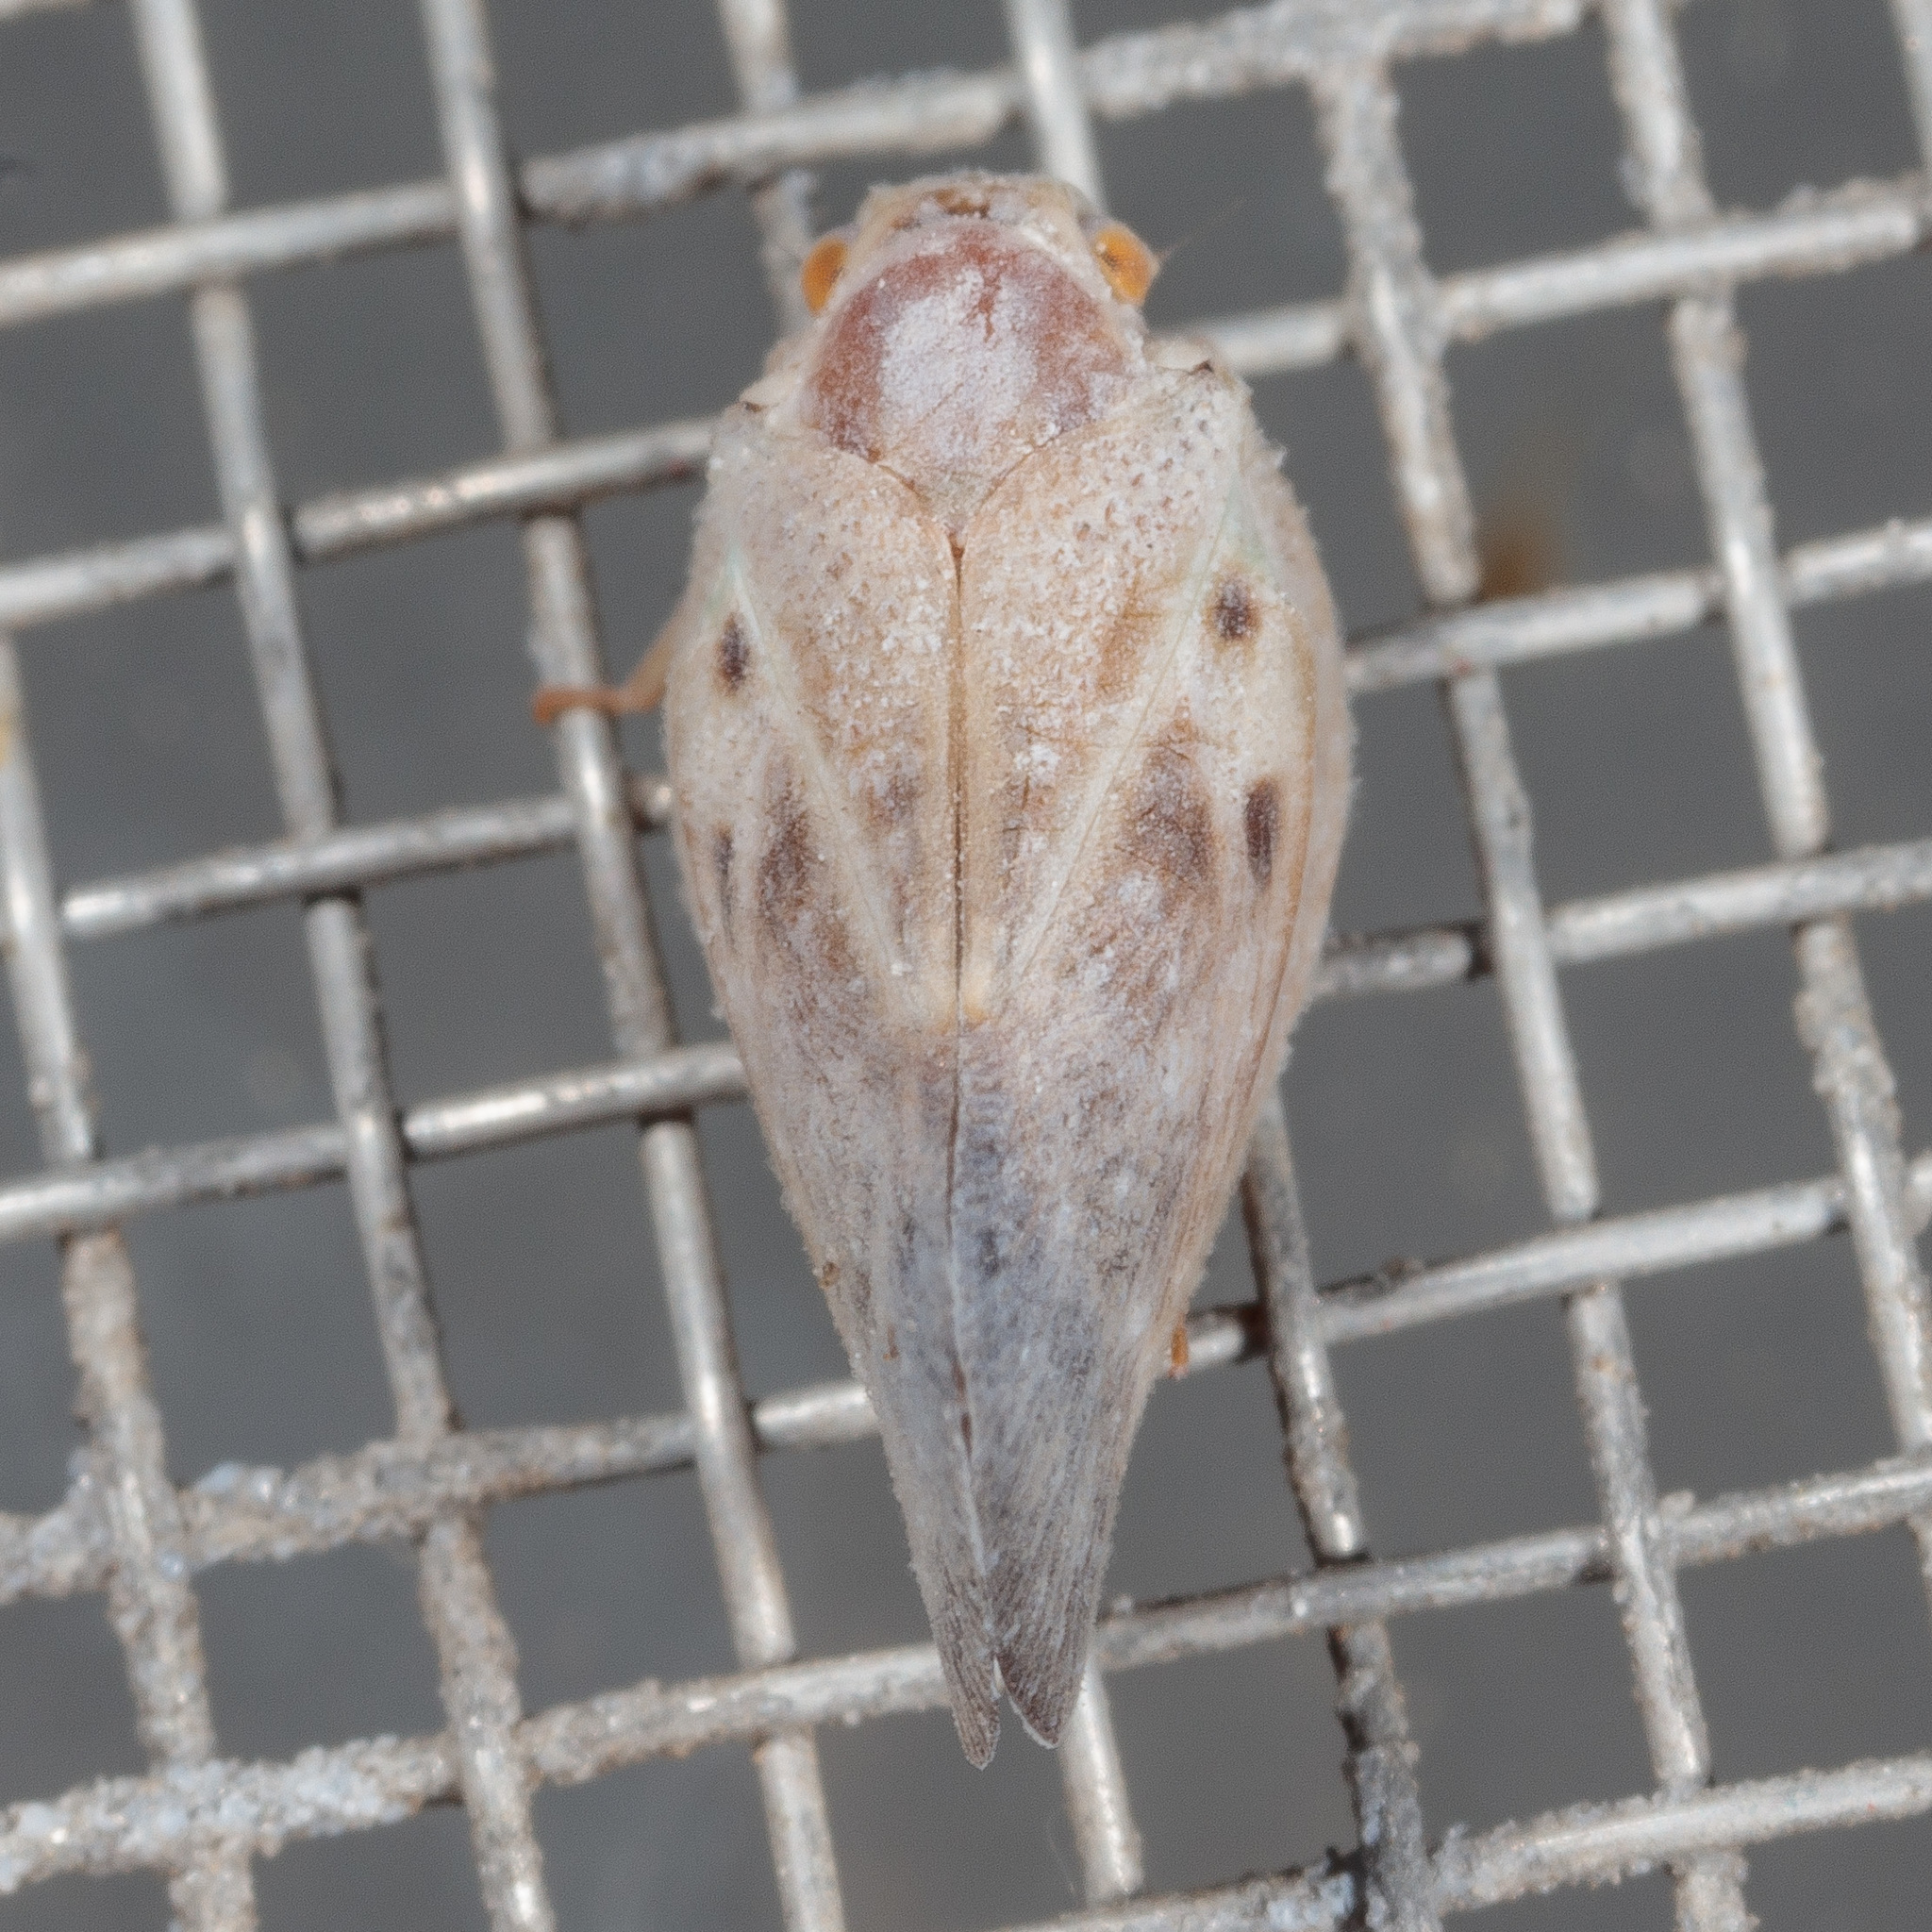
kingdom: Animalia
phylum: Arthropoda
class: Insecta
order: Hemiptera
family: Flatidae
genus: Metcalfa
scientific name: Metcalfa pruinosa
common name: Citrus flatid planthopper
